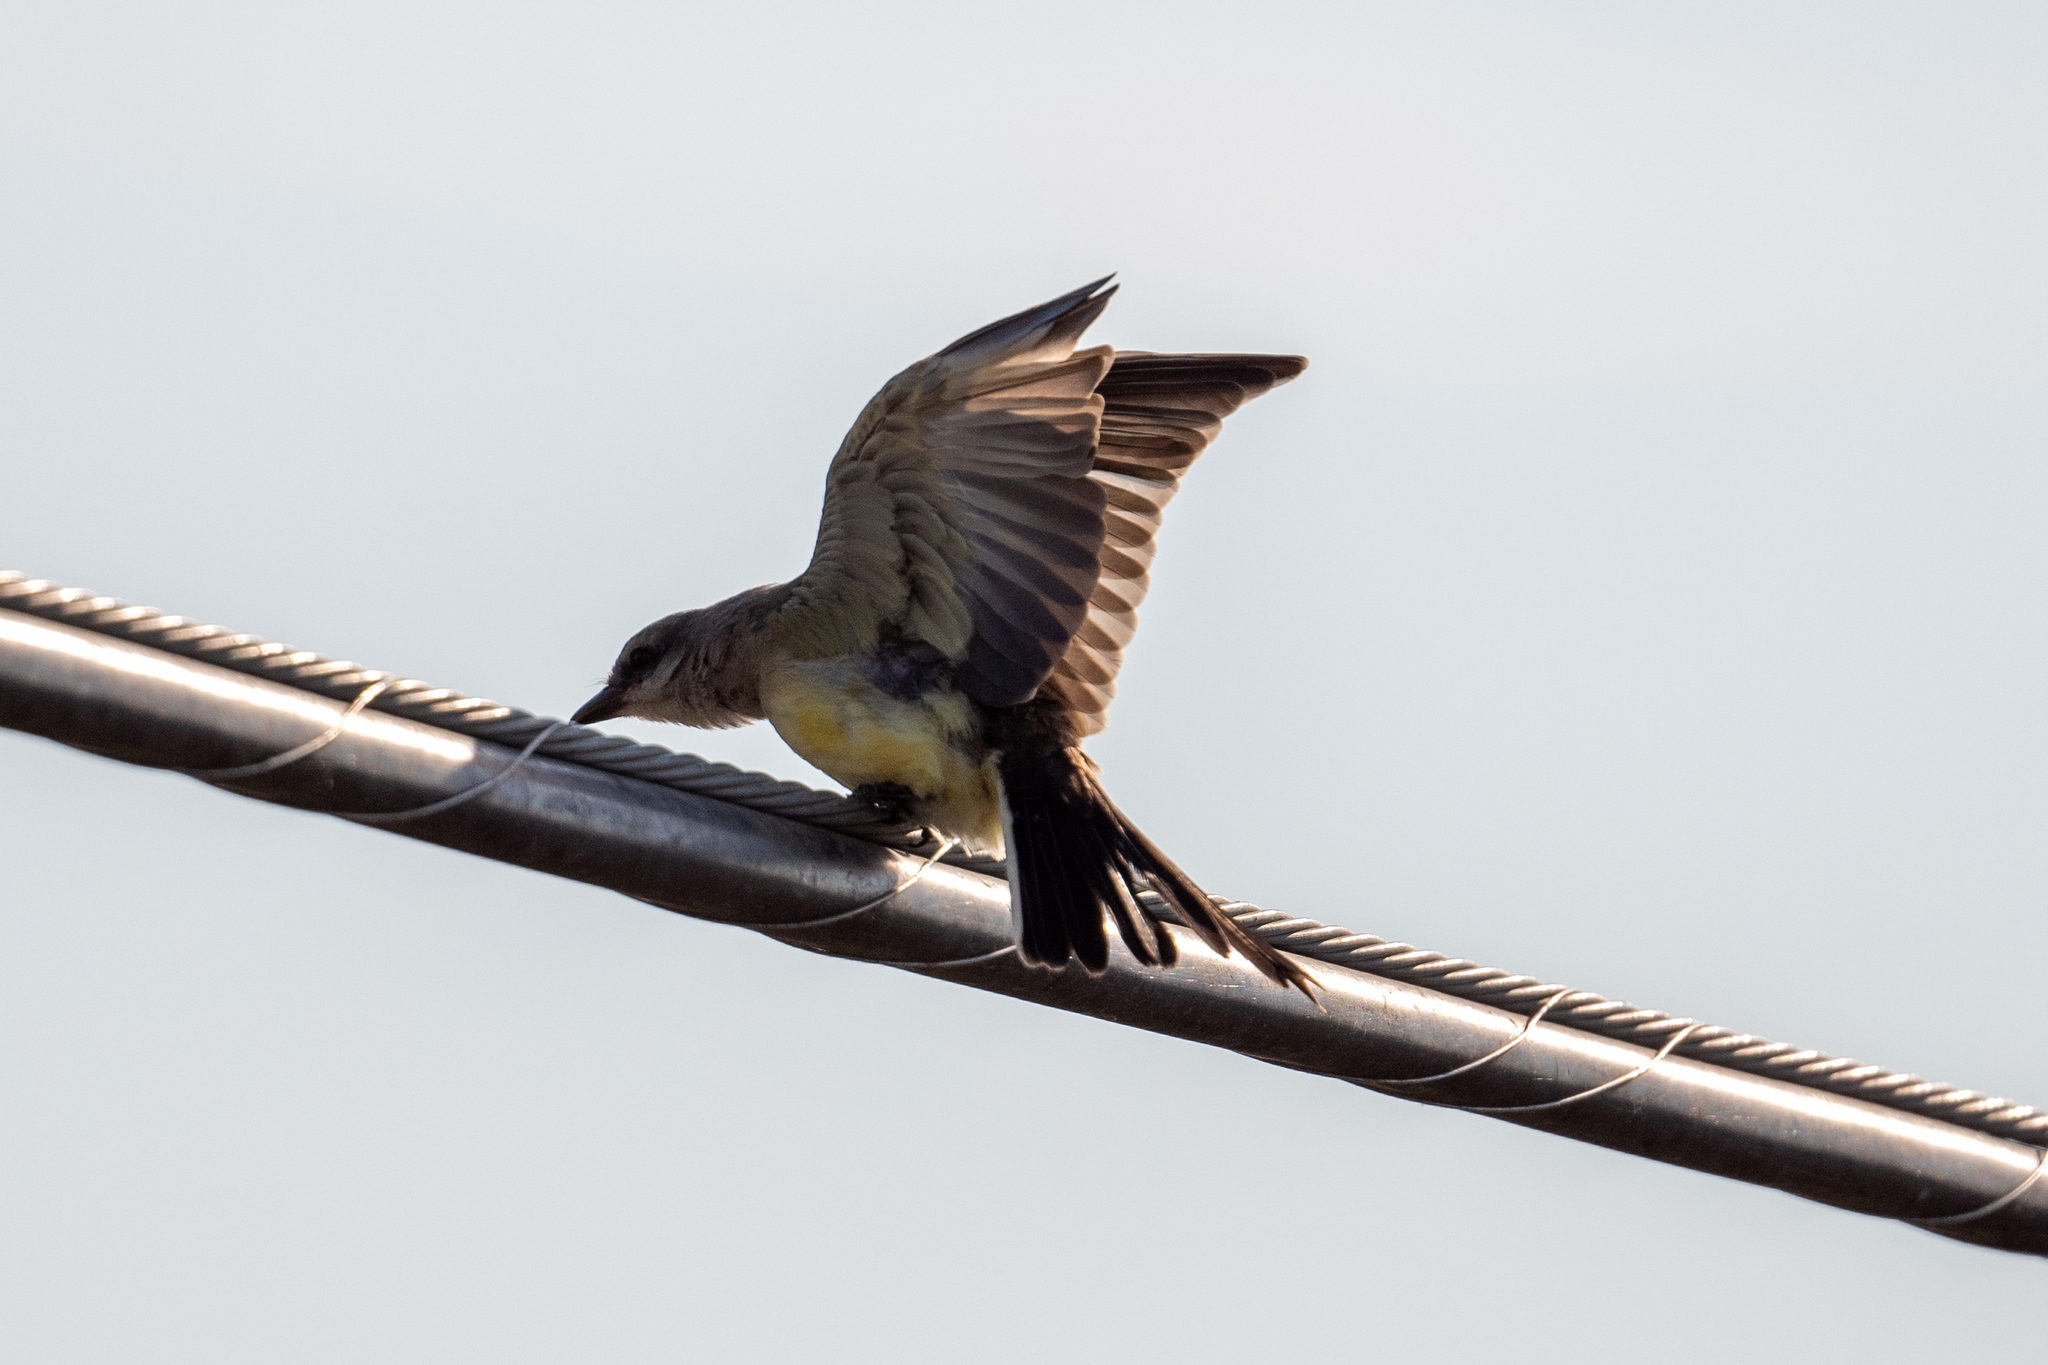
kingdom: Animalia
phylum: Chordata
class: Aves
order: Passeriformes
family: Tyrannidae
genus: Tyrannus
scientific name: Tyrannus verticalis
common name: Western kingbird
